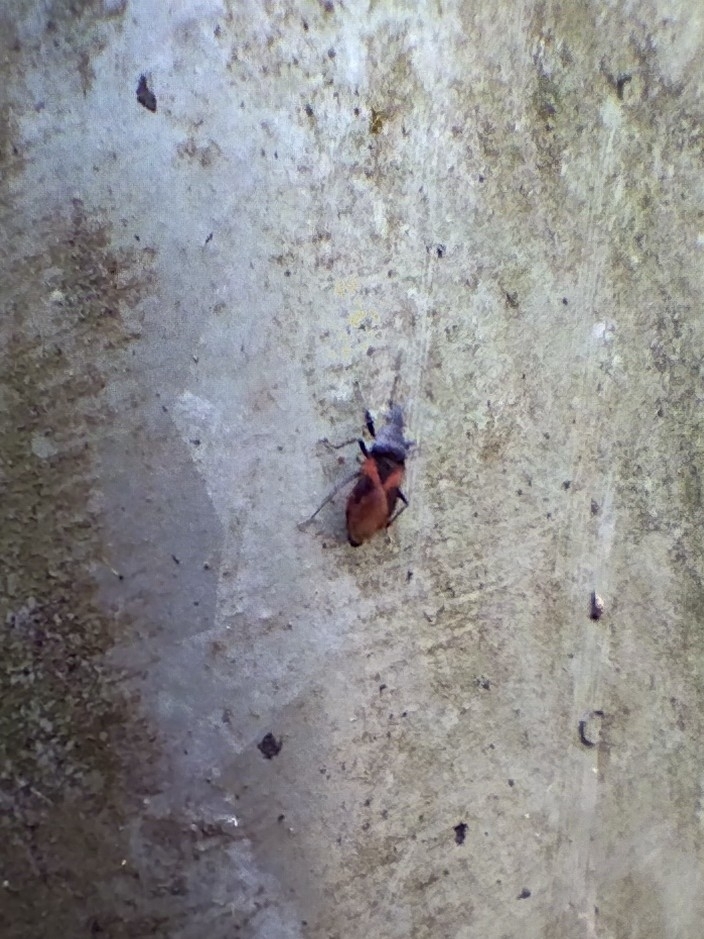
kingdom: Animalia
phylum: Arthropoda
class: Insecta
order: Hemiptera
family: Oxycarenidae
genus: Oxycarenus
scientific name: Oxycarenus lavaterae
